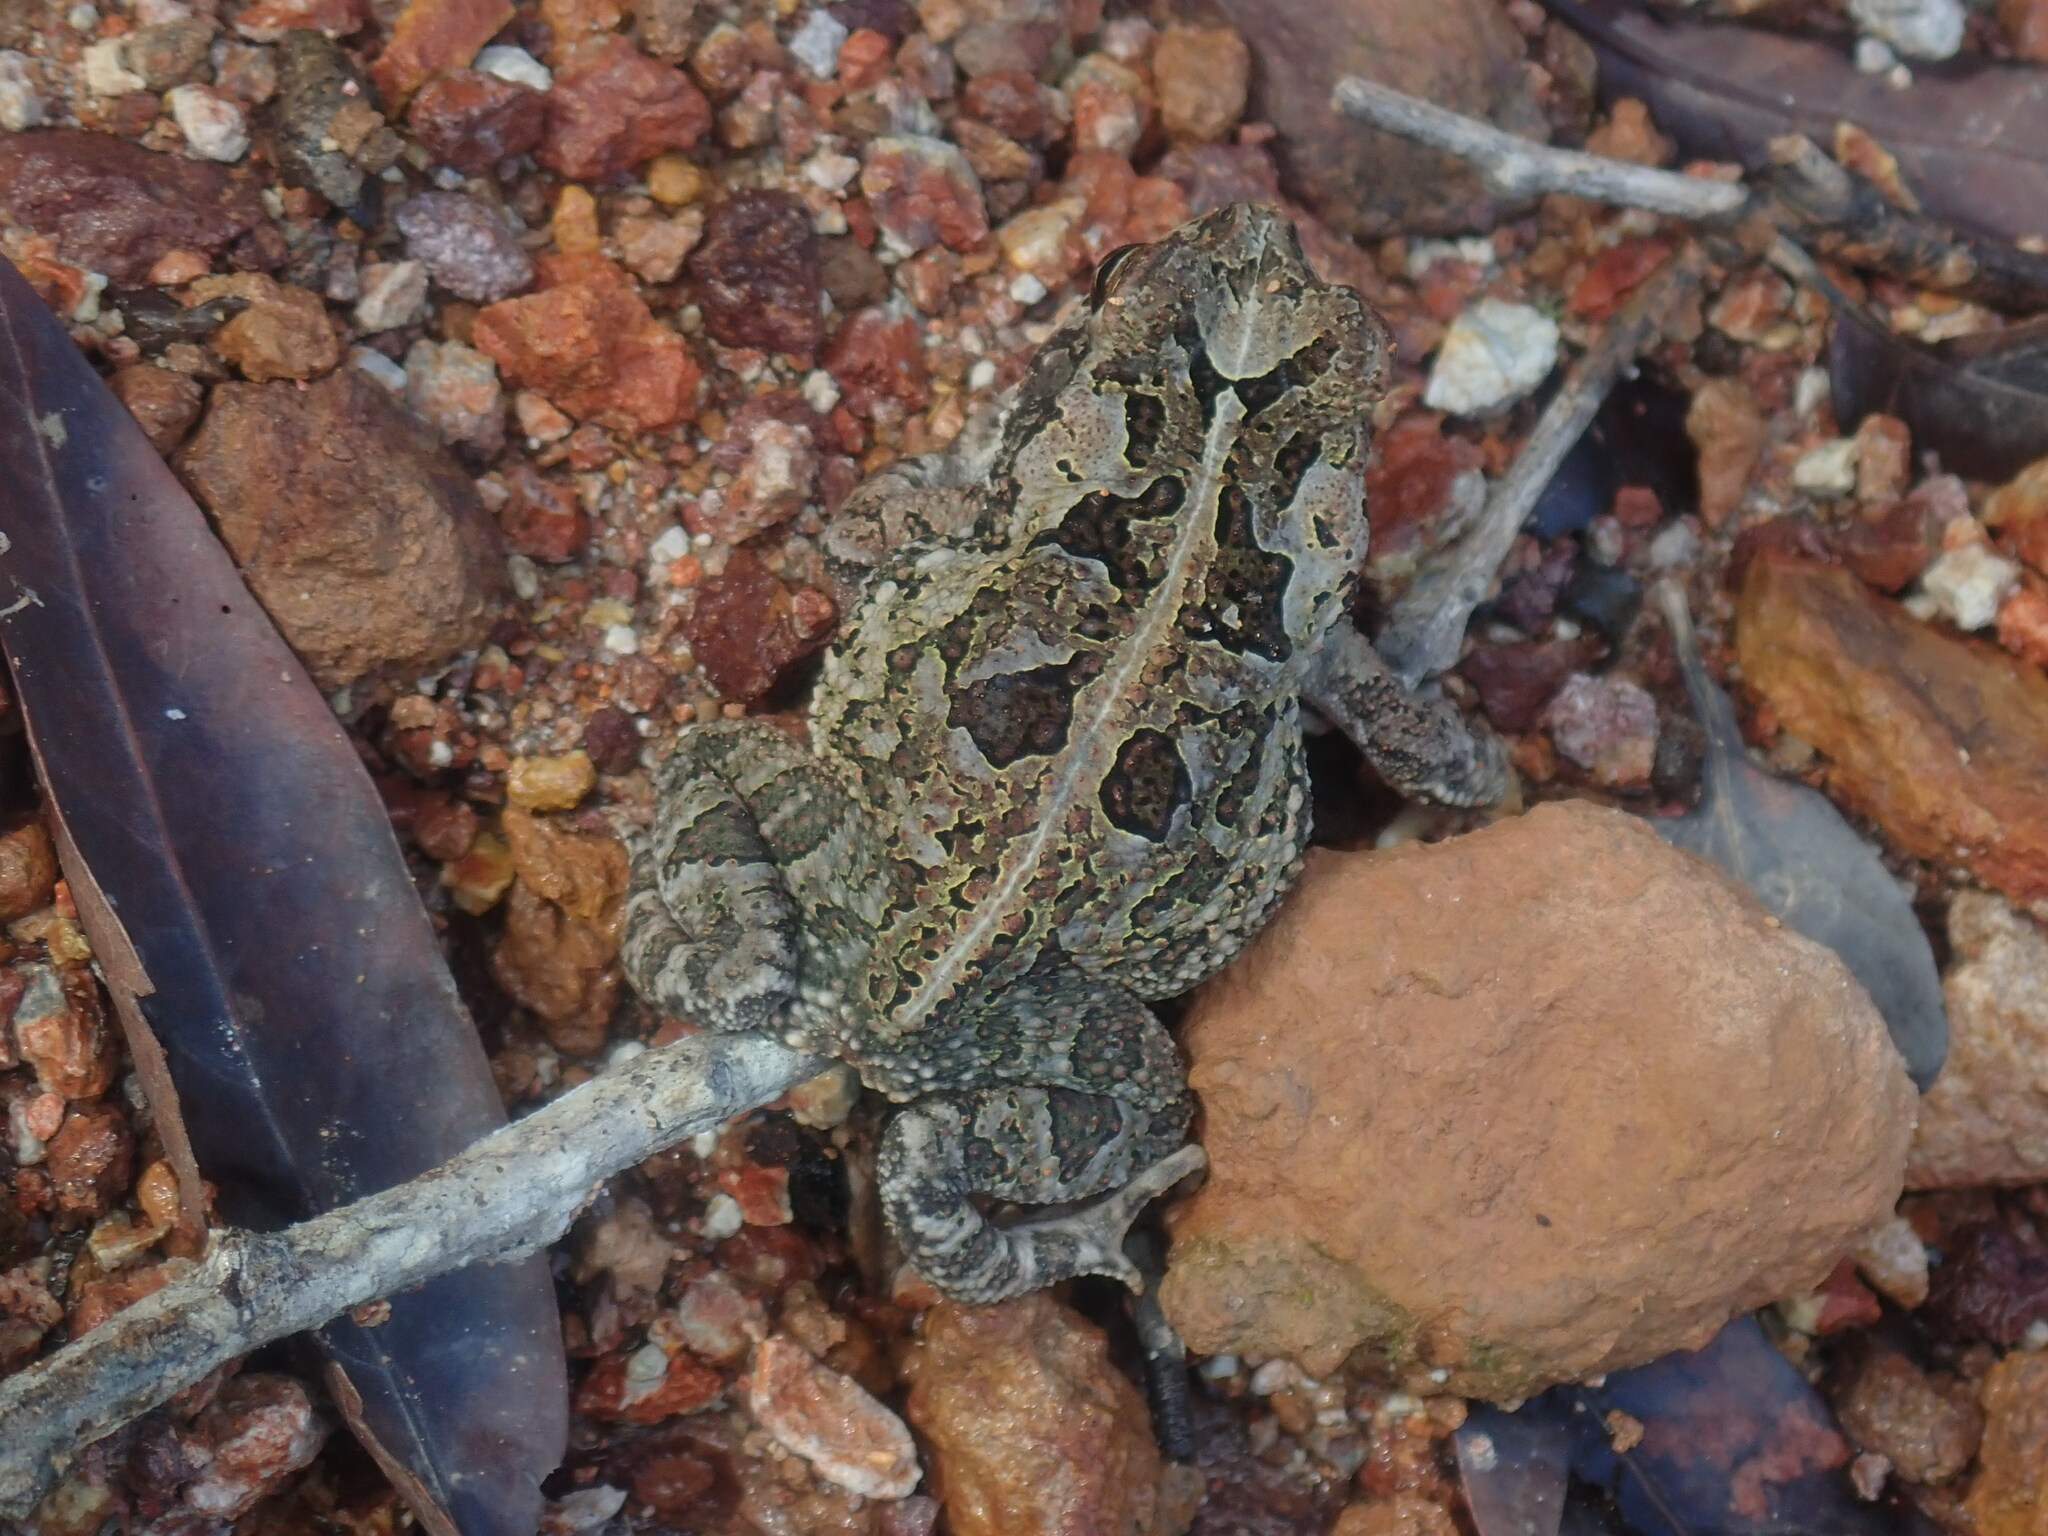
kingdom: Animalia
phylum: Chordata
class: Amphibia
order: Anura
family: Bufonidae
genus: Incilius
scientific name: Incilius marmoreus
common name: Marbled toad
